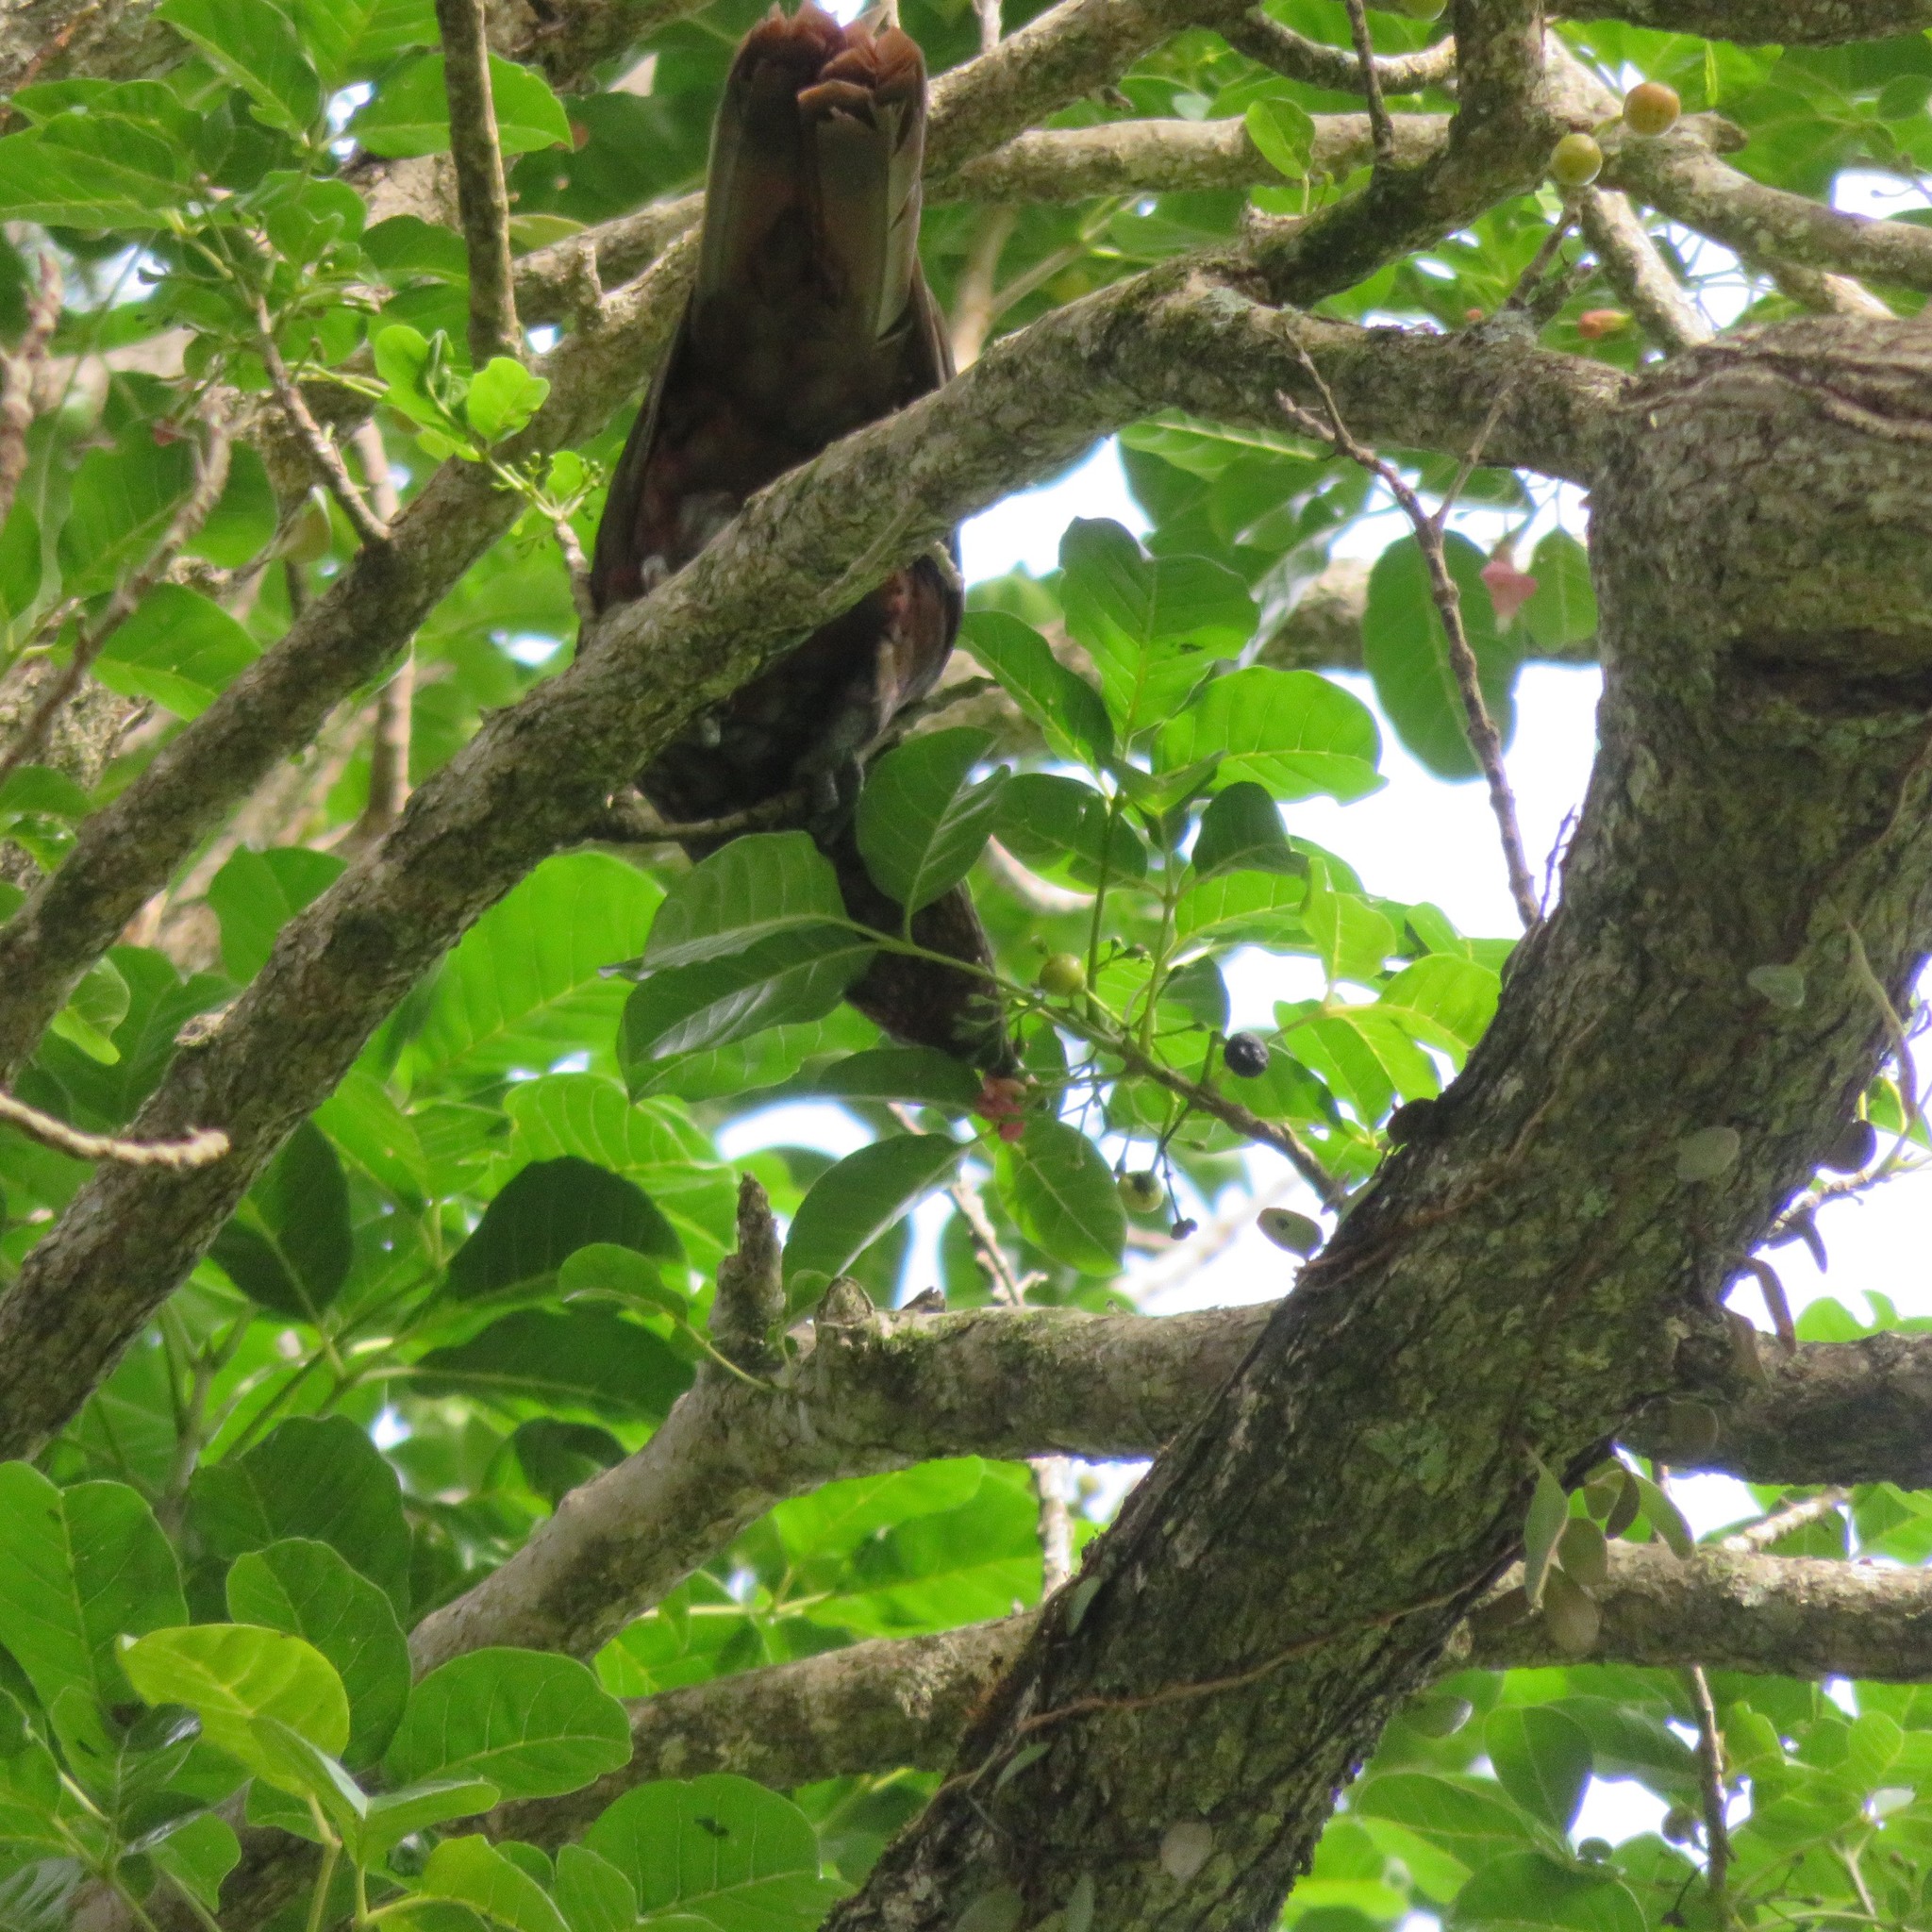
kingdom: Plantae
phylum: Tracheophyta
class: Magnoliopsida
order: Lamiales
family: Lamiaceae
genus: Vitex
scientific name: Vitex lucens
